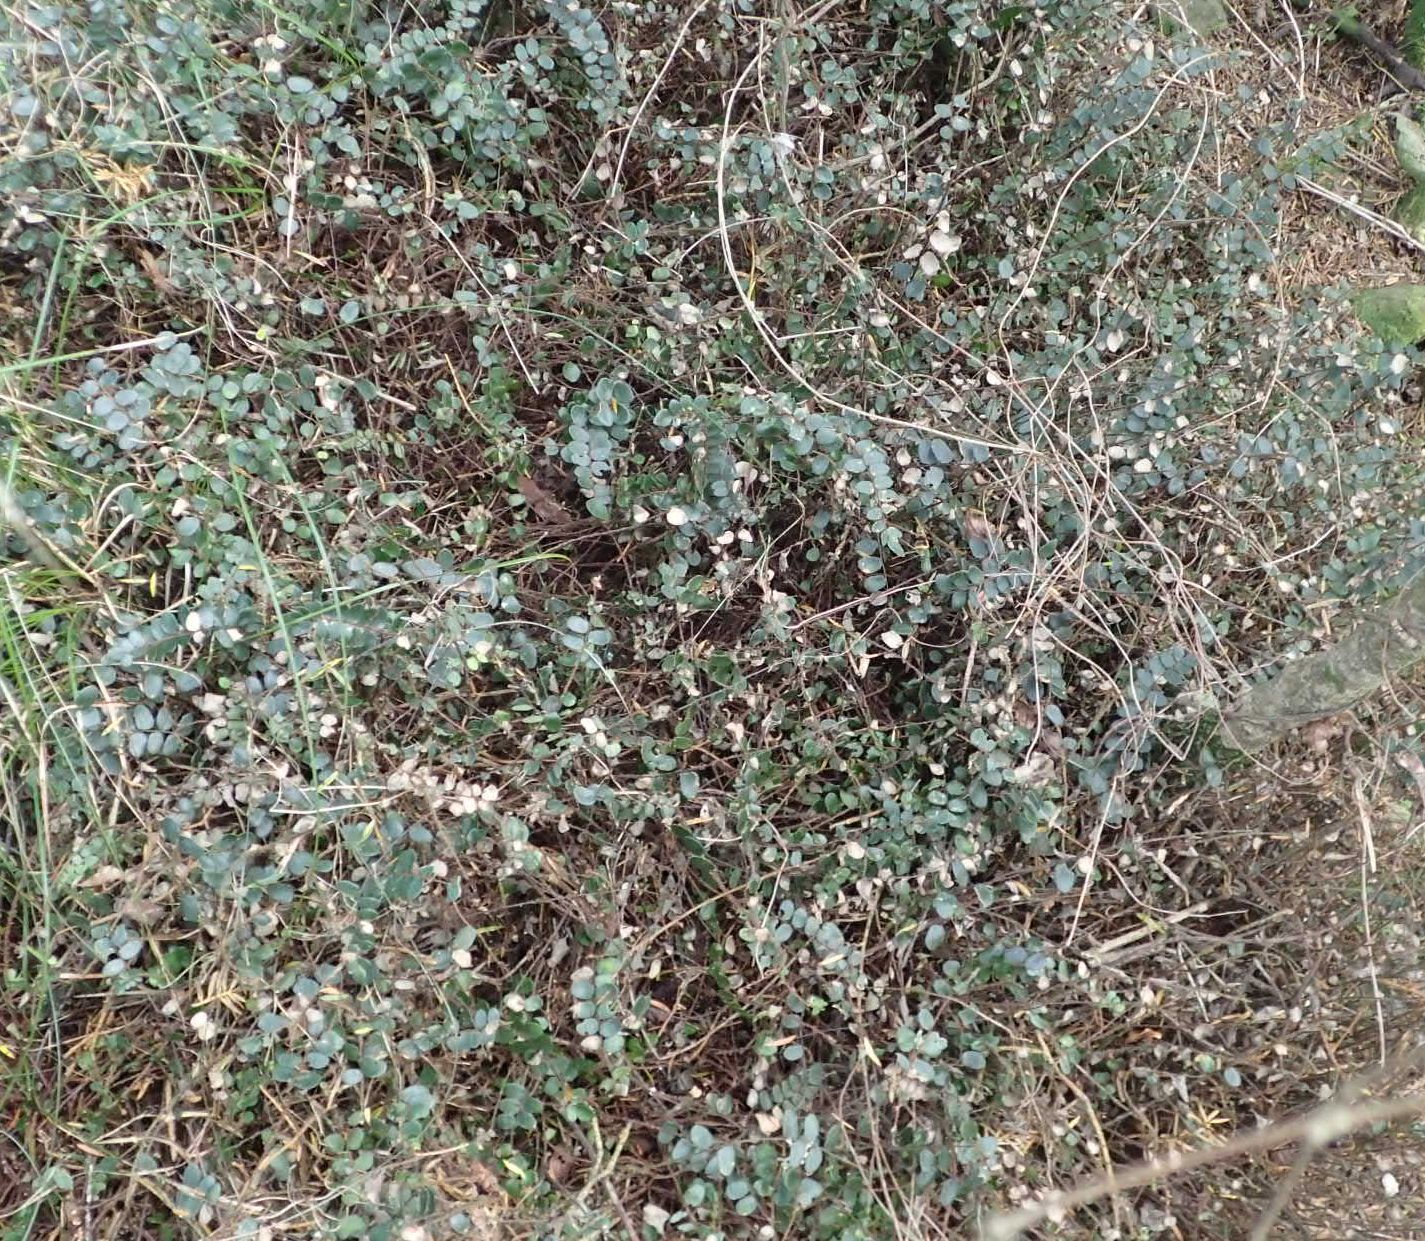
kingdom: Plantae
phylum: Tracheophyta
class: Polypodiopsida
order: Polypodiales
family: Pteridaceae
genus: Pellaea
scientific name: Pellaea rotundifolia
